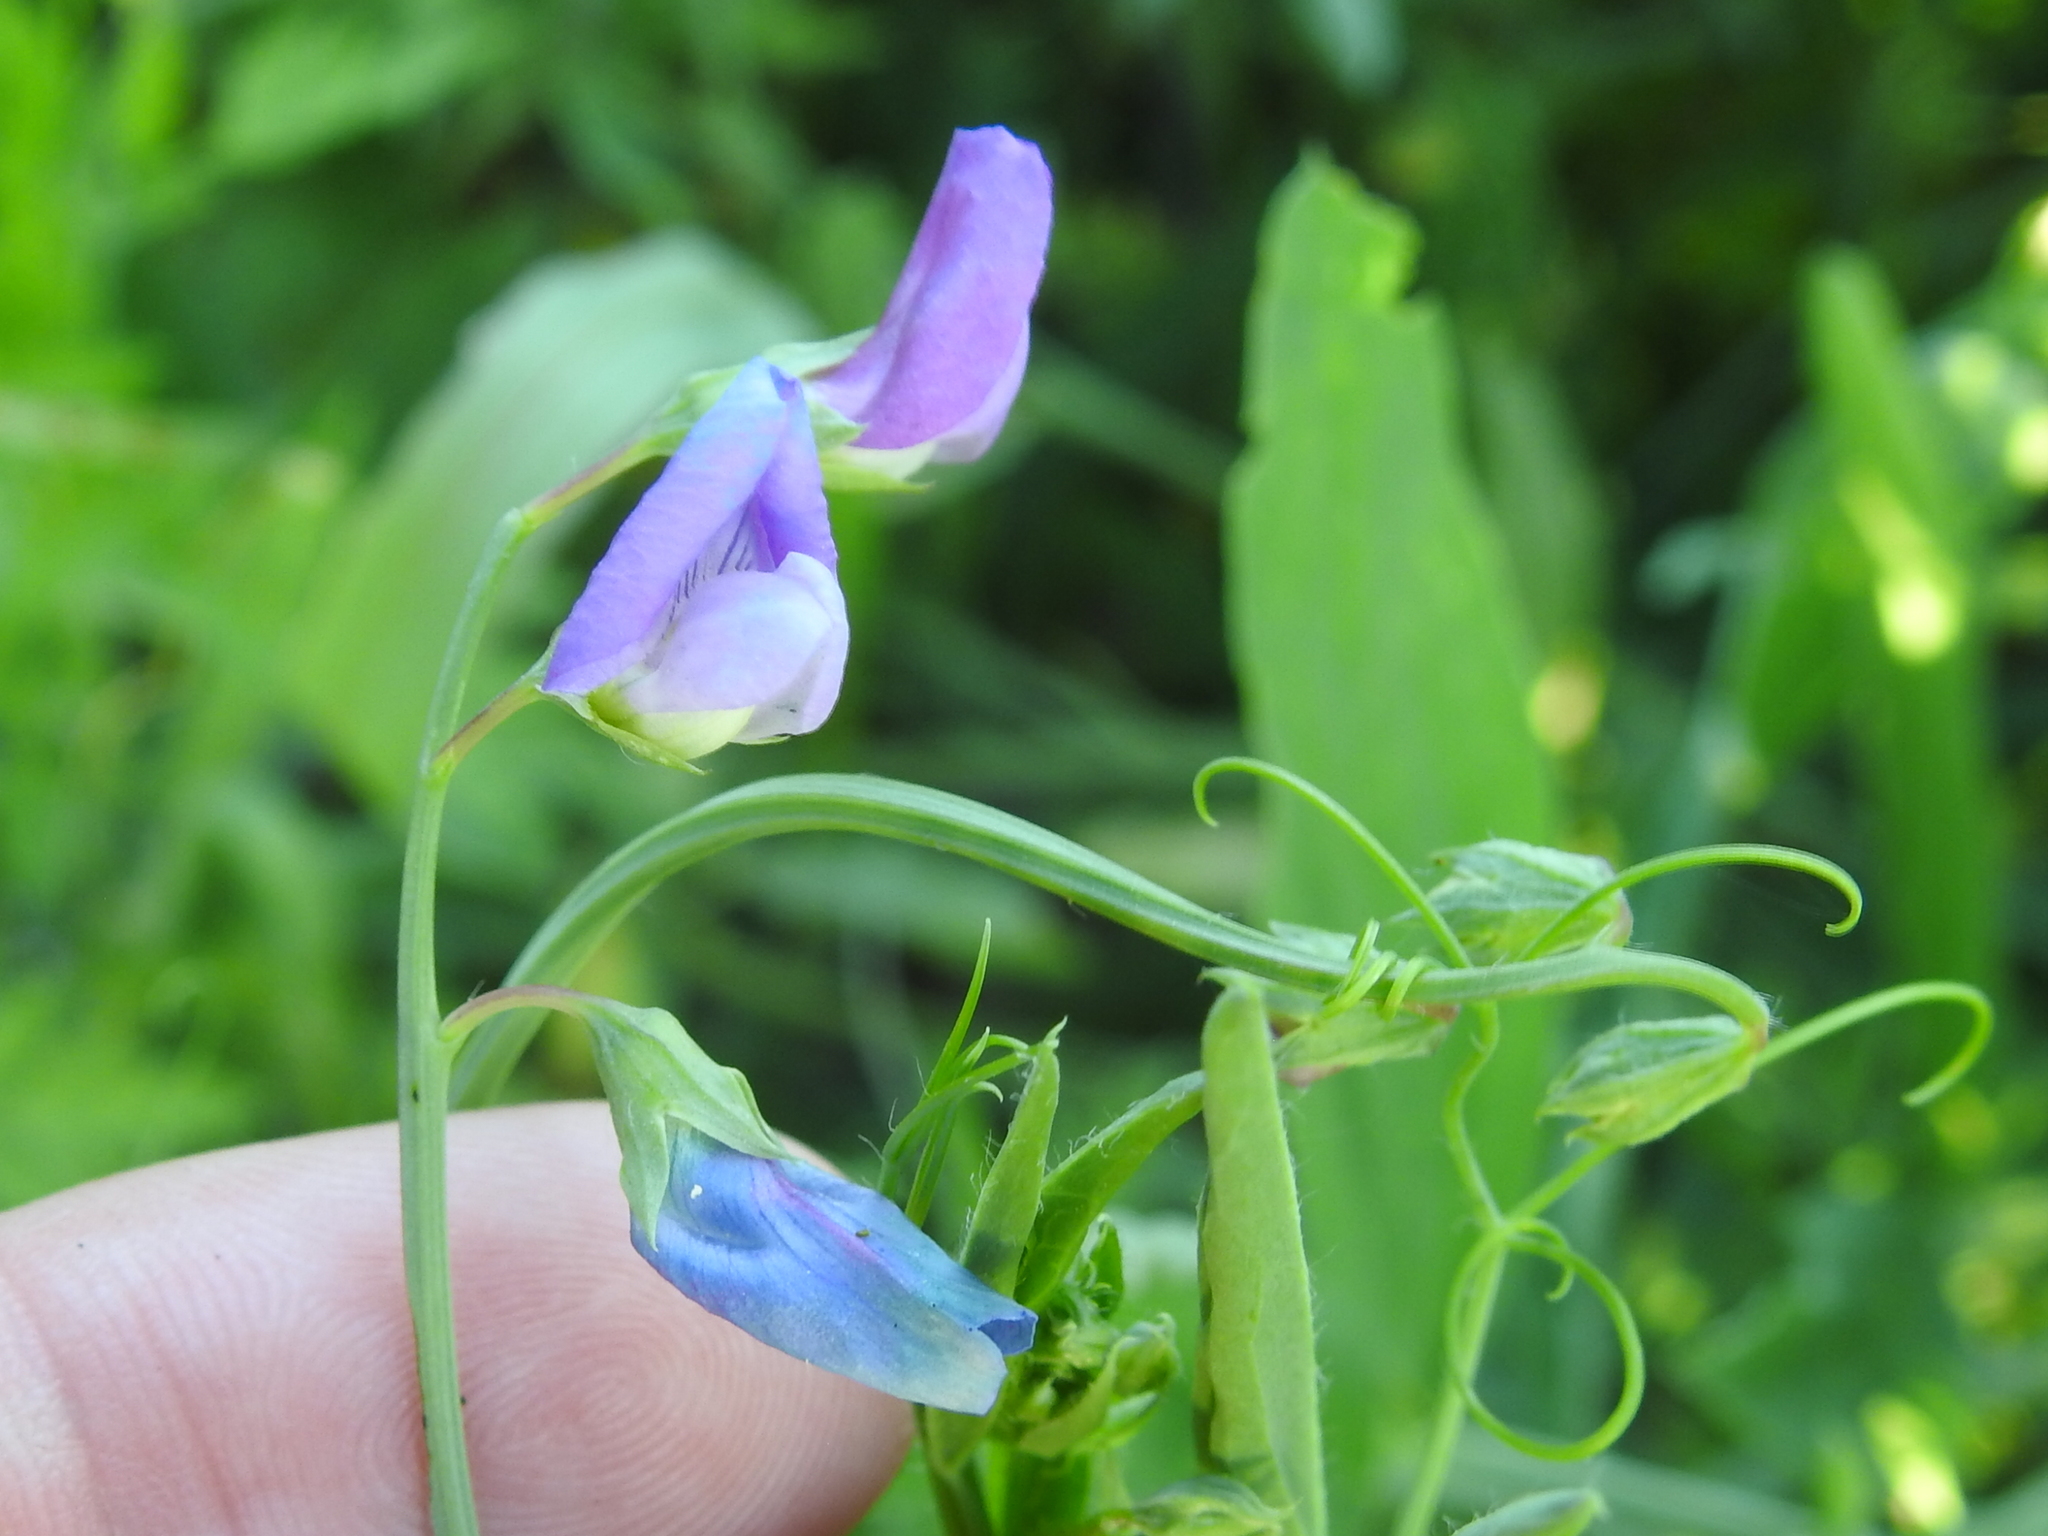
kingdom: Plantae
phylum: Tracheophyta
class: Magnoliopsida
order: Fabales
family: Fabaceae
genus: Lathyrus
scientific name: Lathyrus hirsutus
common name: Hairy vetchling
